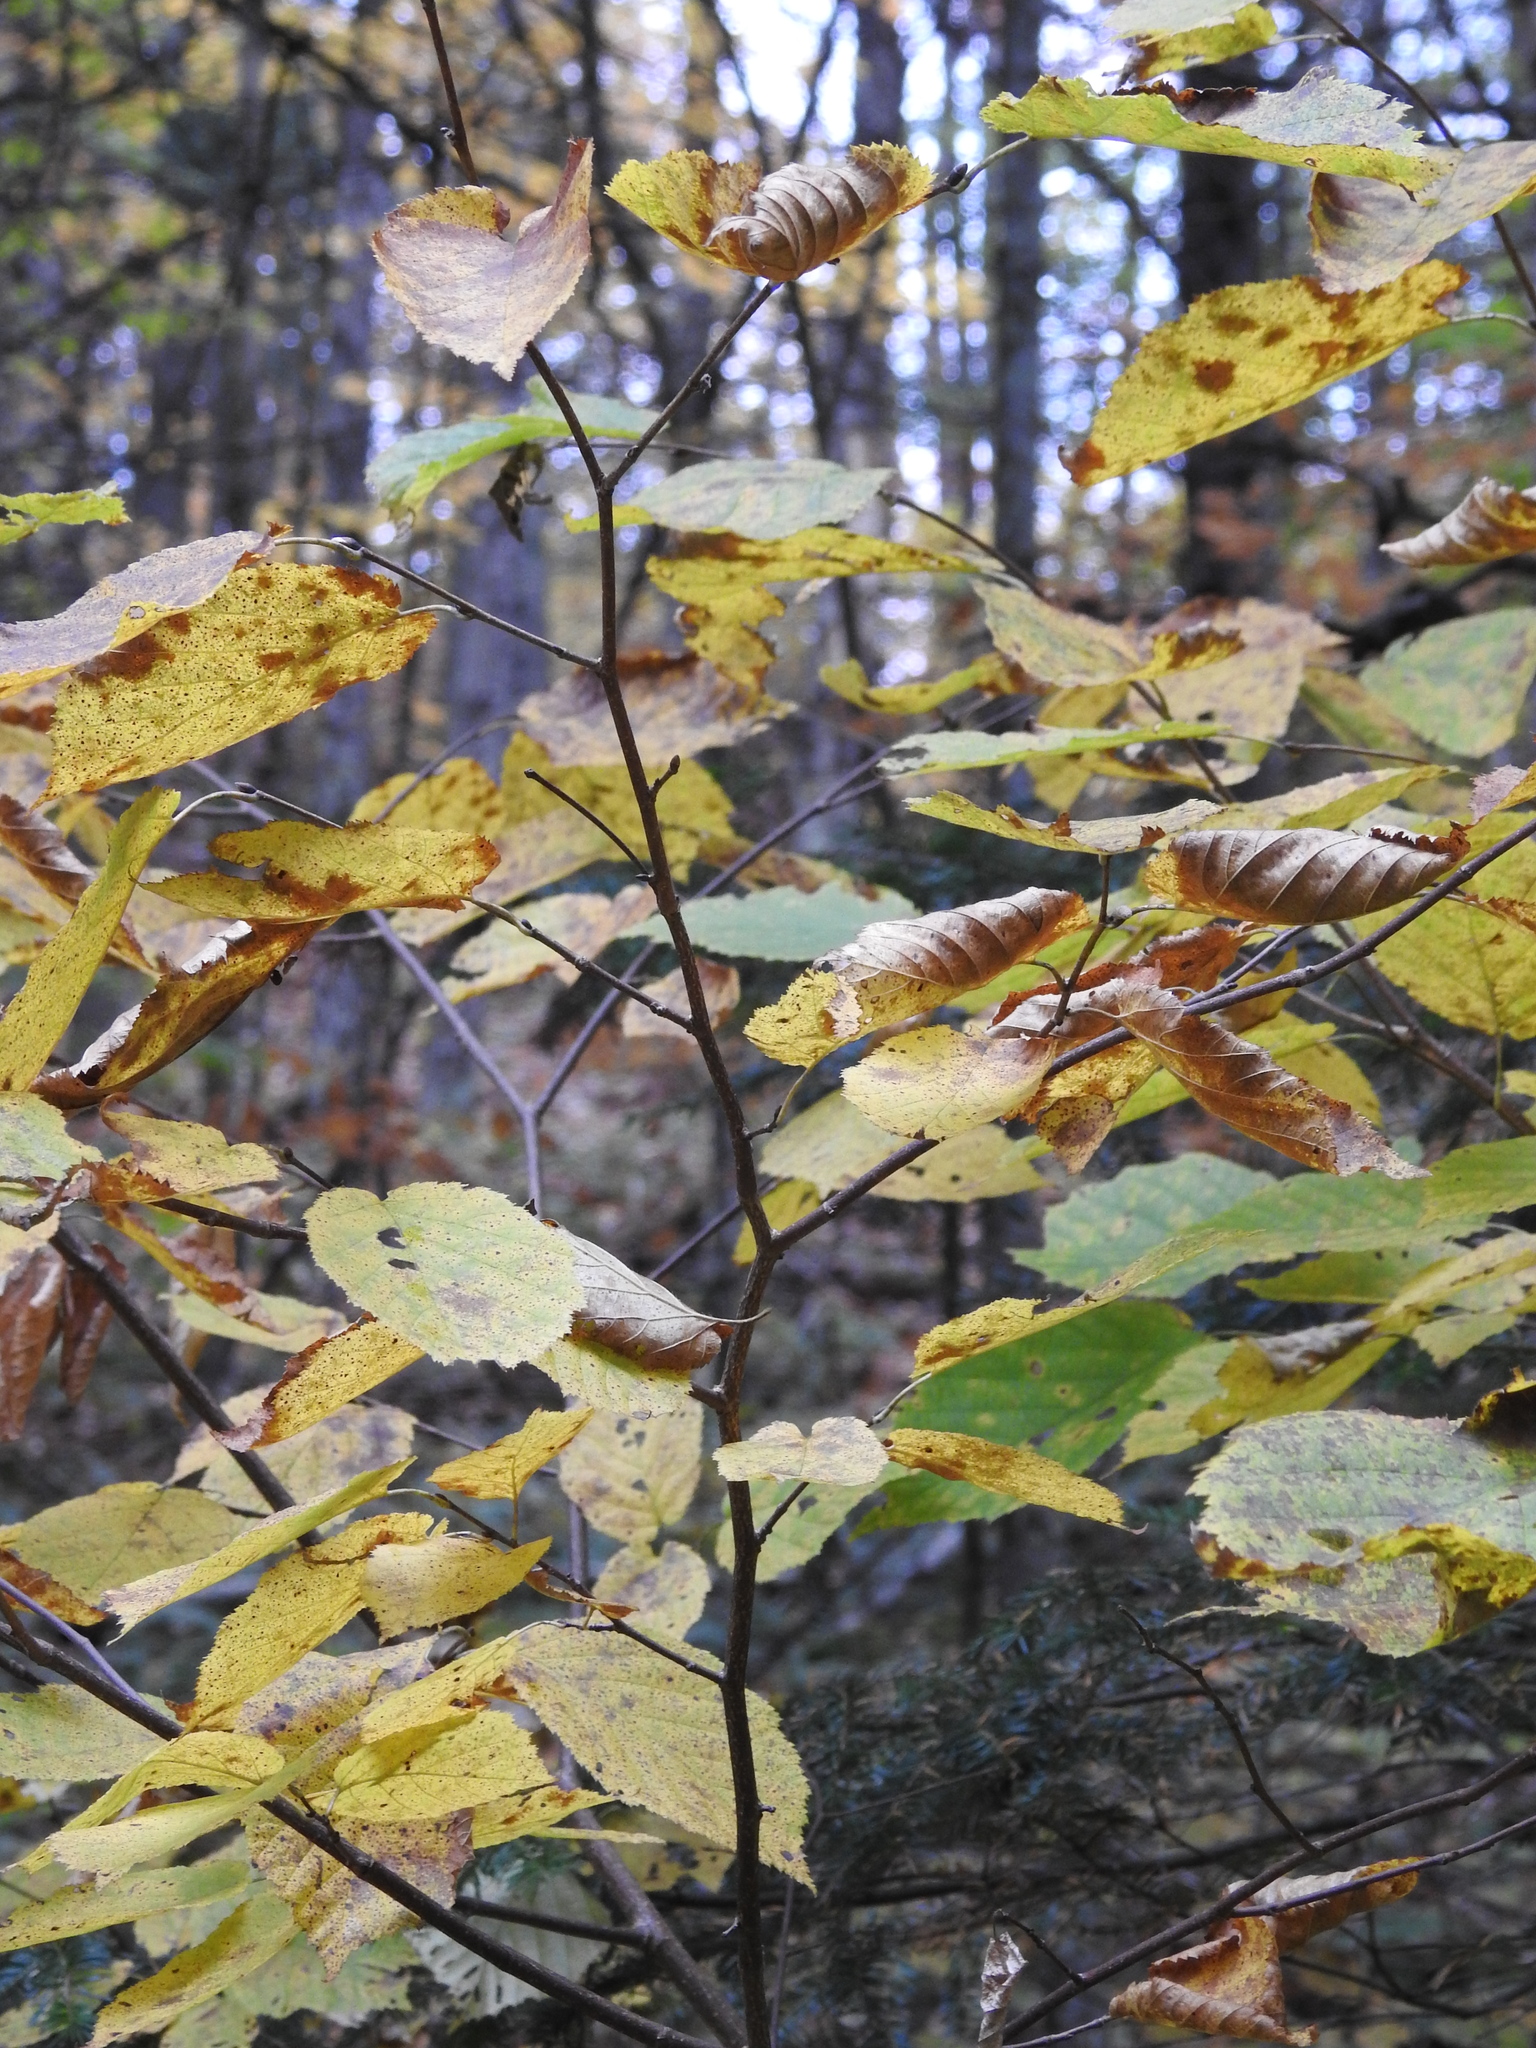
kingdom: Plantae
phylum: Tracheophyta
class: Magnoliopsida
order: Fagales
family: Betulaceae
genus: Corylus
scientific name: Corylus cornuta
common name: Beaked hazel
